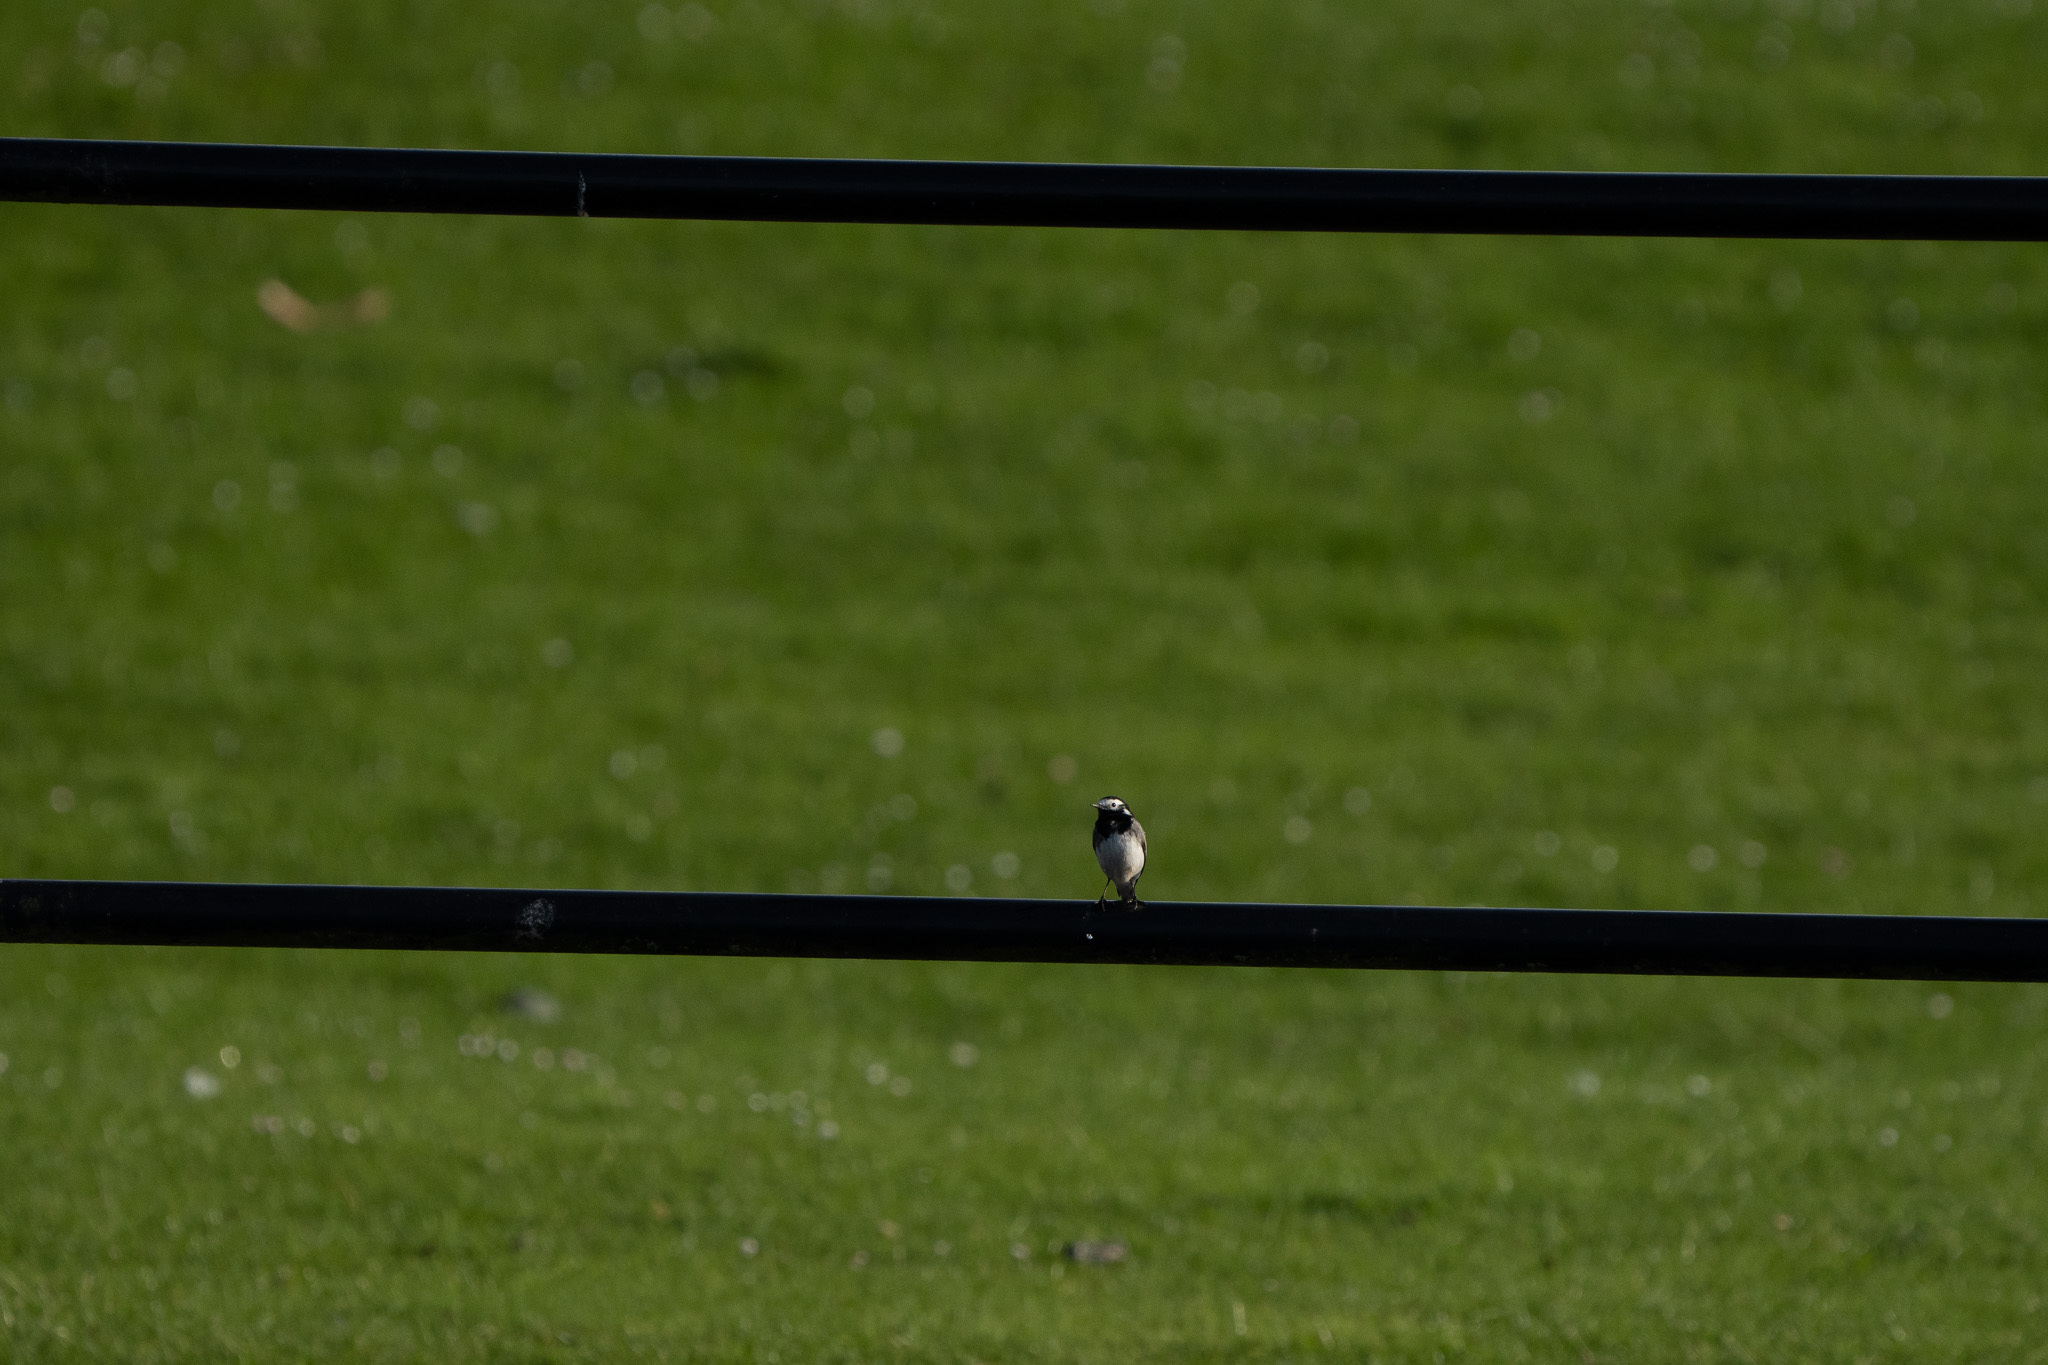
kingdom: Animalia
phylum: Chordata
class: Aves
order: Passeriformes
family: Motacillidae
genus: Motacilla
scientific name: Motacilla alba
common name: White wagtail
